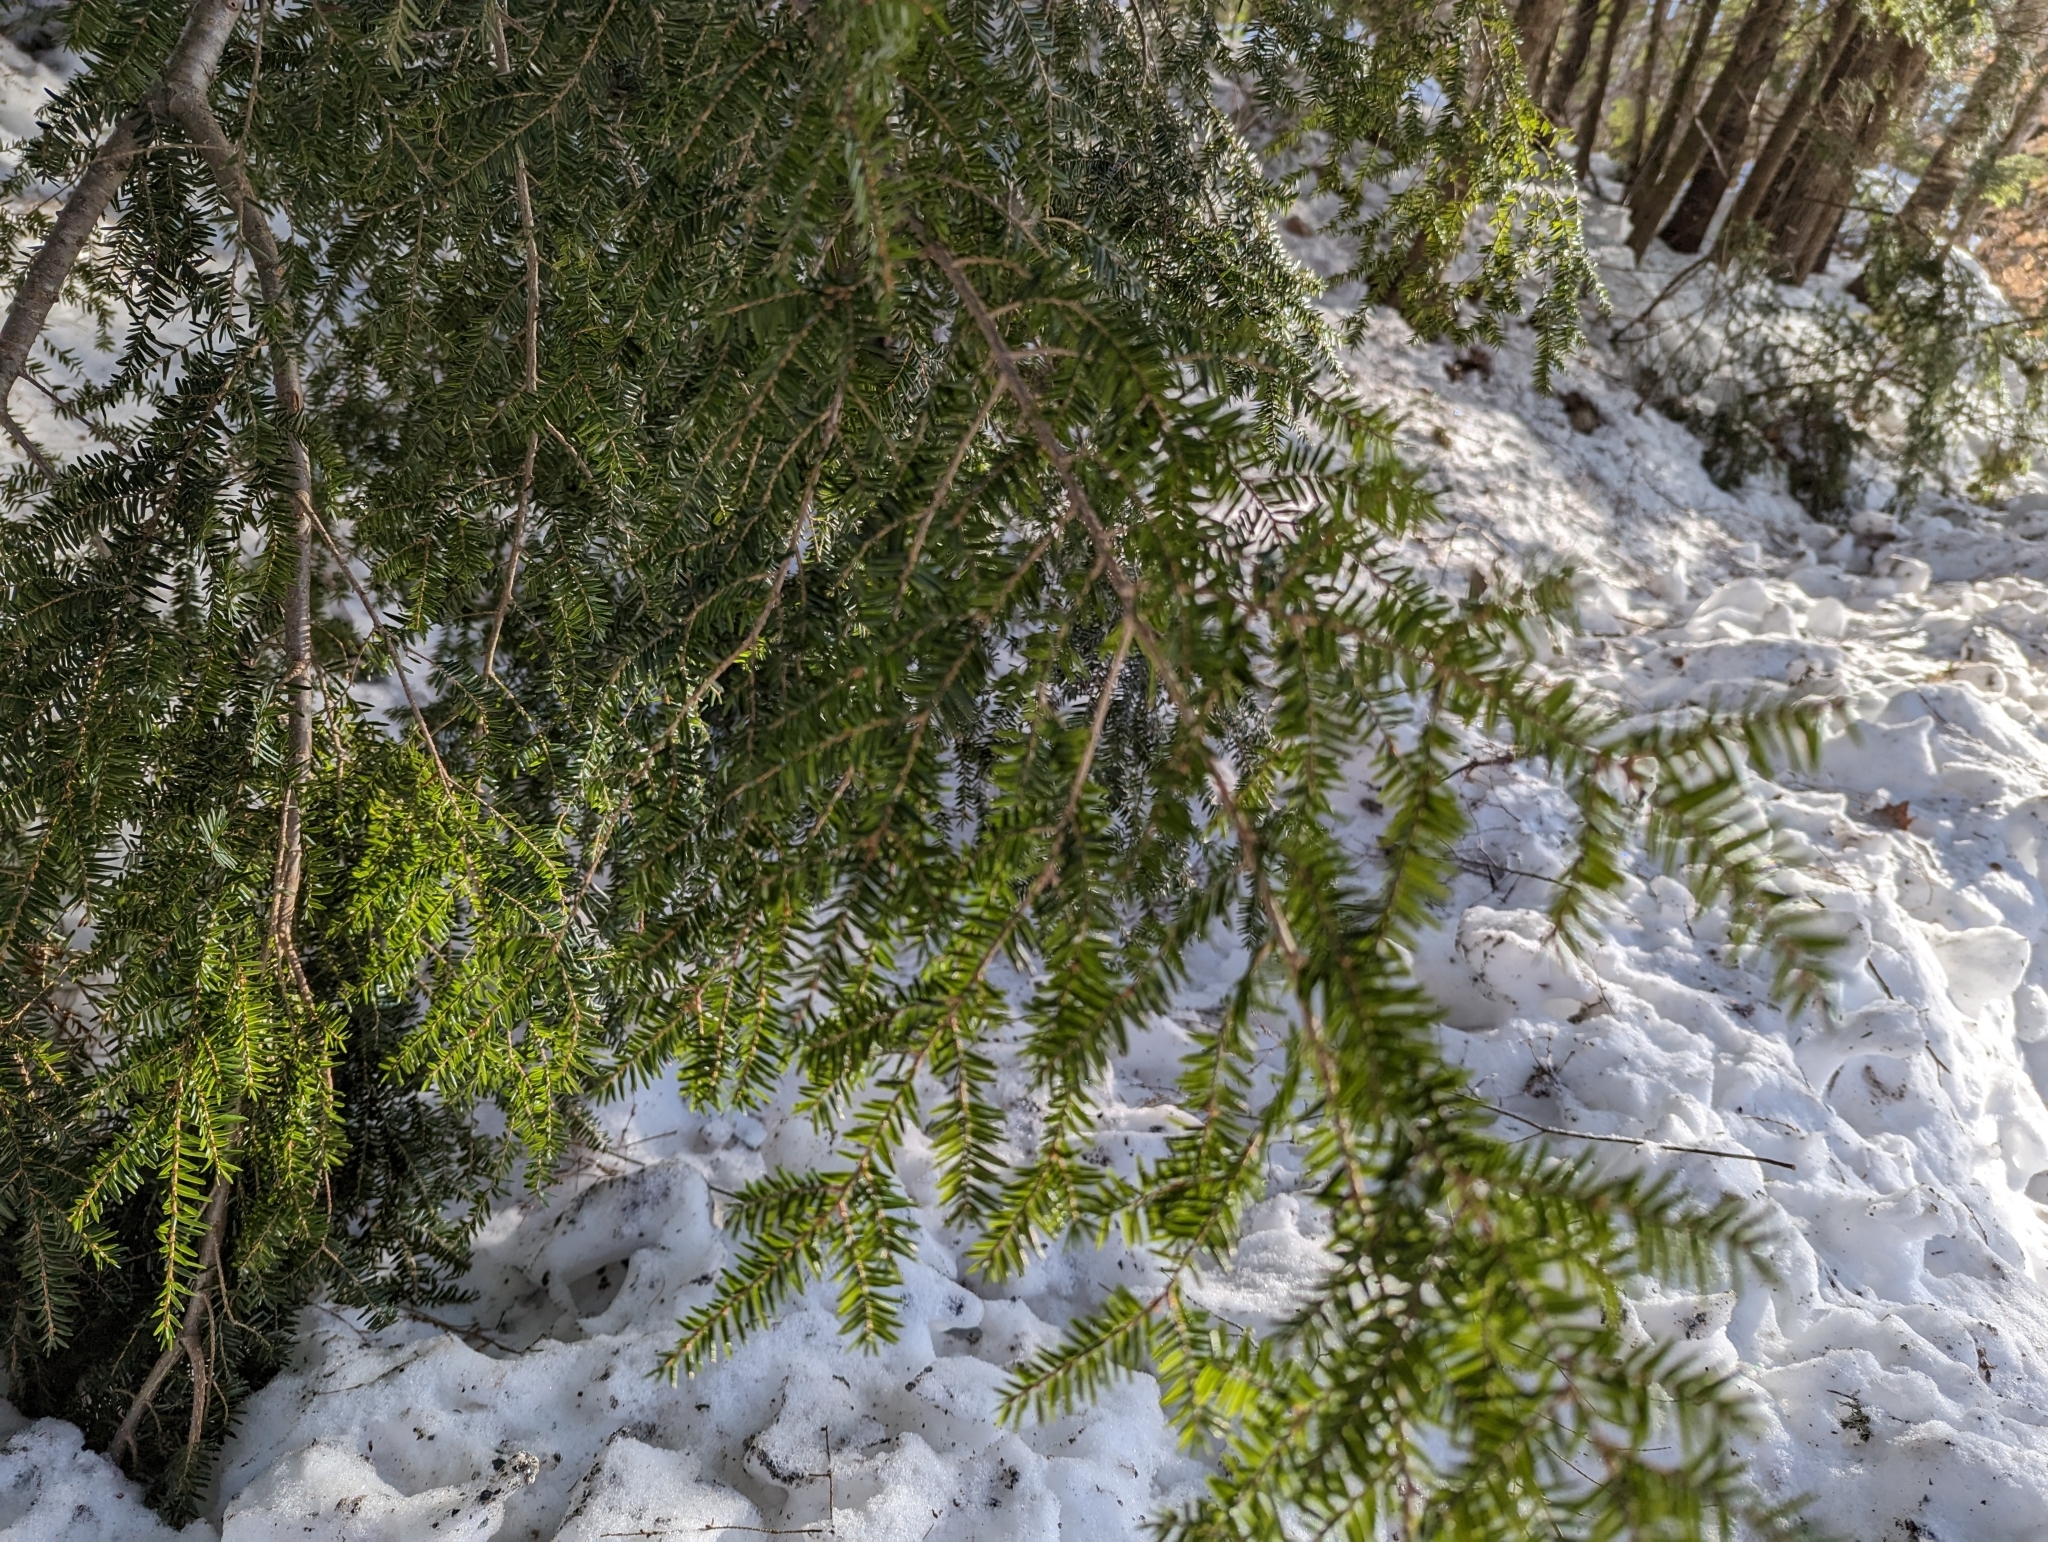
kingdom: Plantae
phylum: Tracheophyta
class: Pinopsida
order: Pinales
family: Pinaceae
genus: Tsuga
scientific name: Tsuga canadensis
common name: Eastern hemlock
